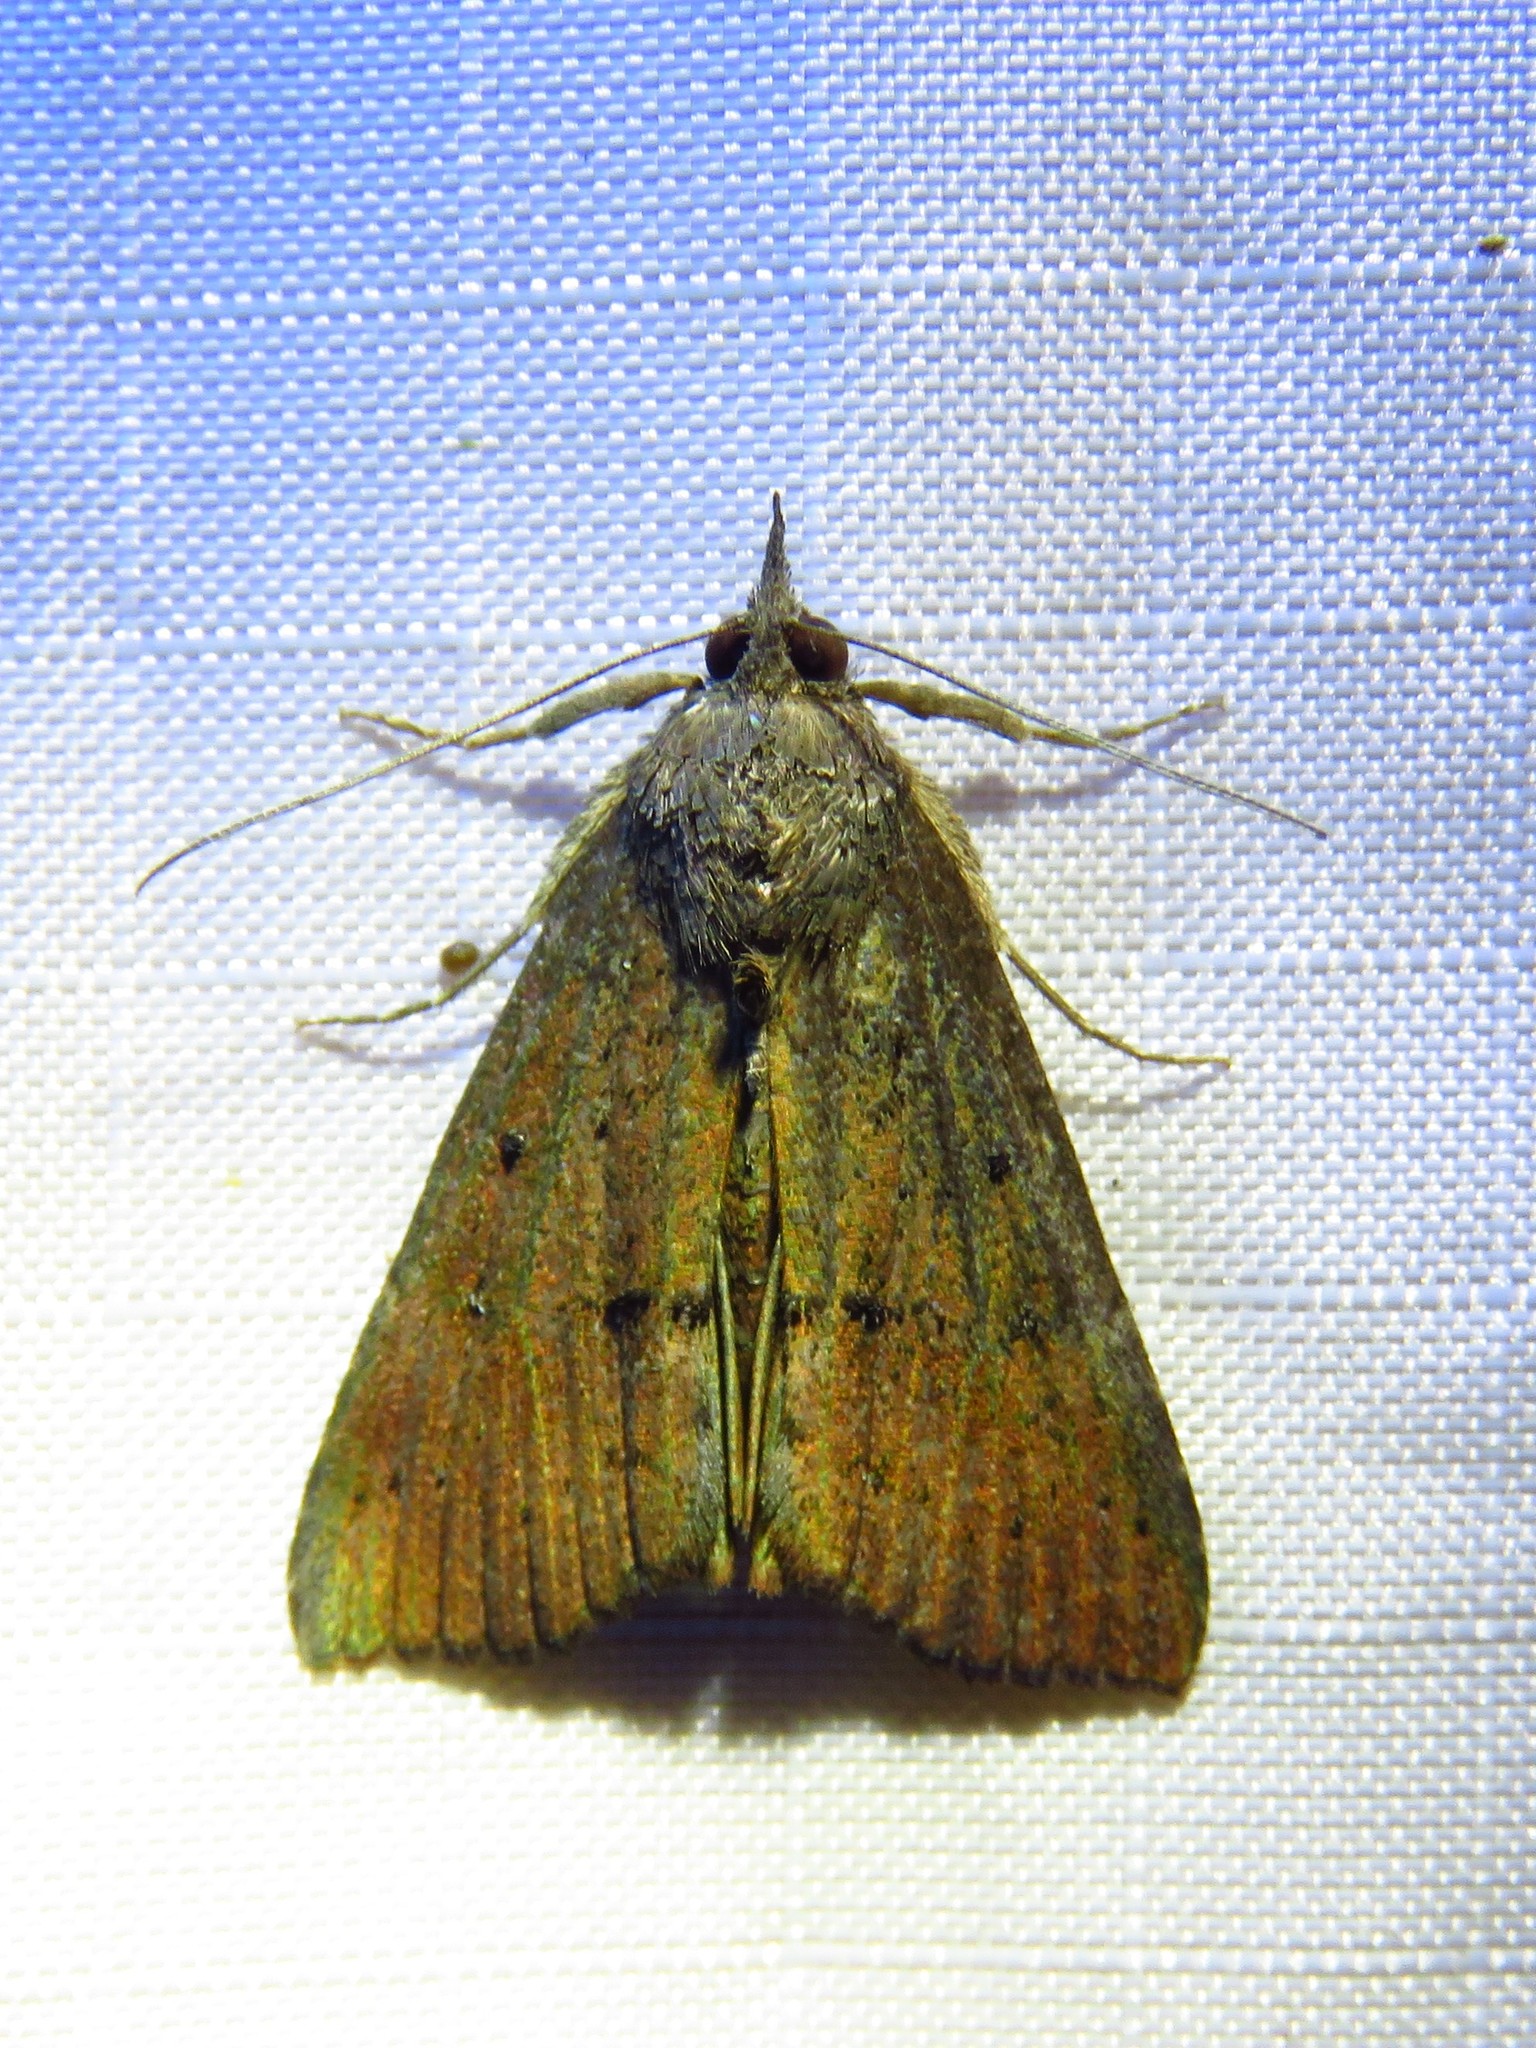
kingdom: Animalia
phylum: Arthropoda
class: Insecta
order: Lepidoptera
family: Erebidae
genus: Hypena
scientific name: Hypena scabra
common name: Green cloverworm
